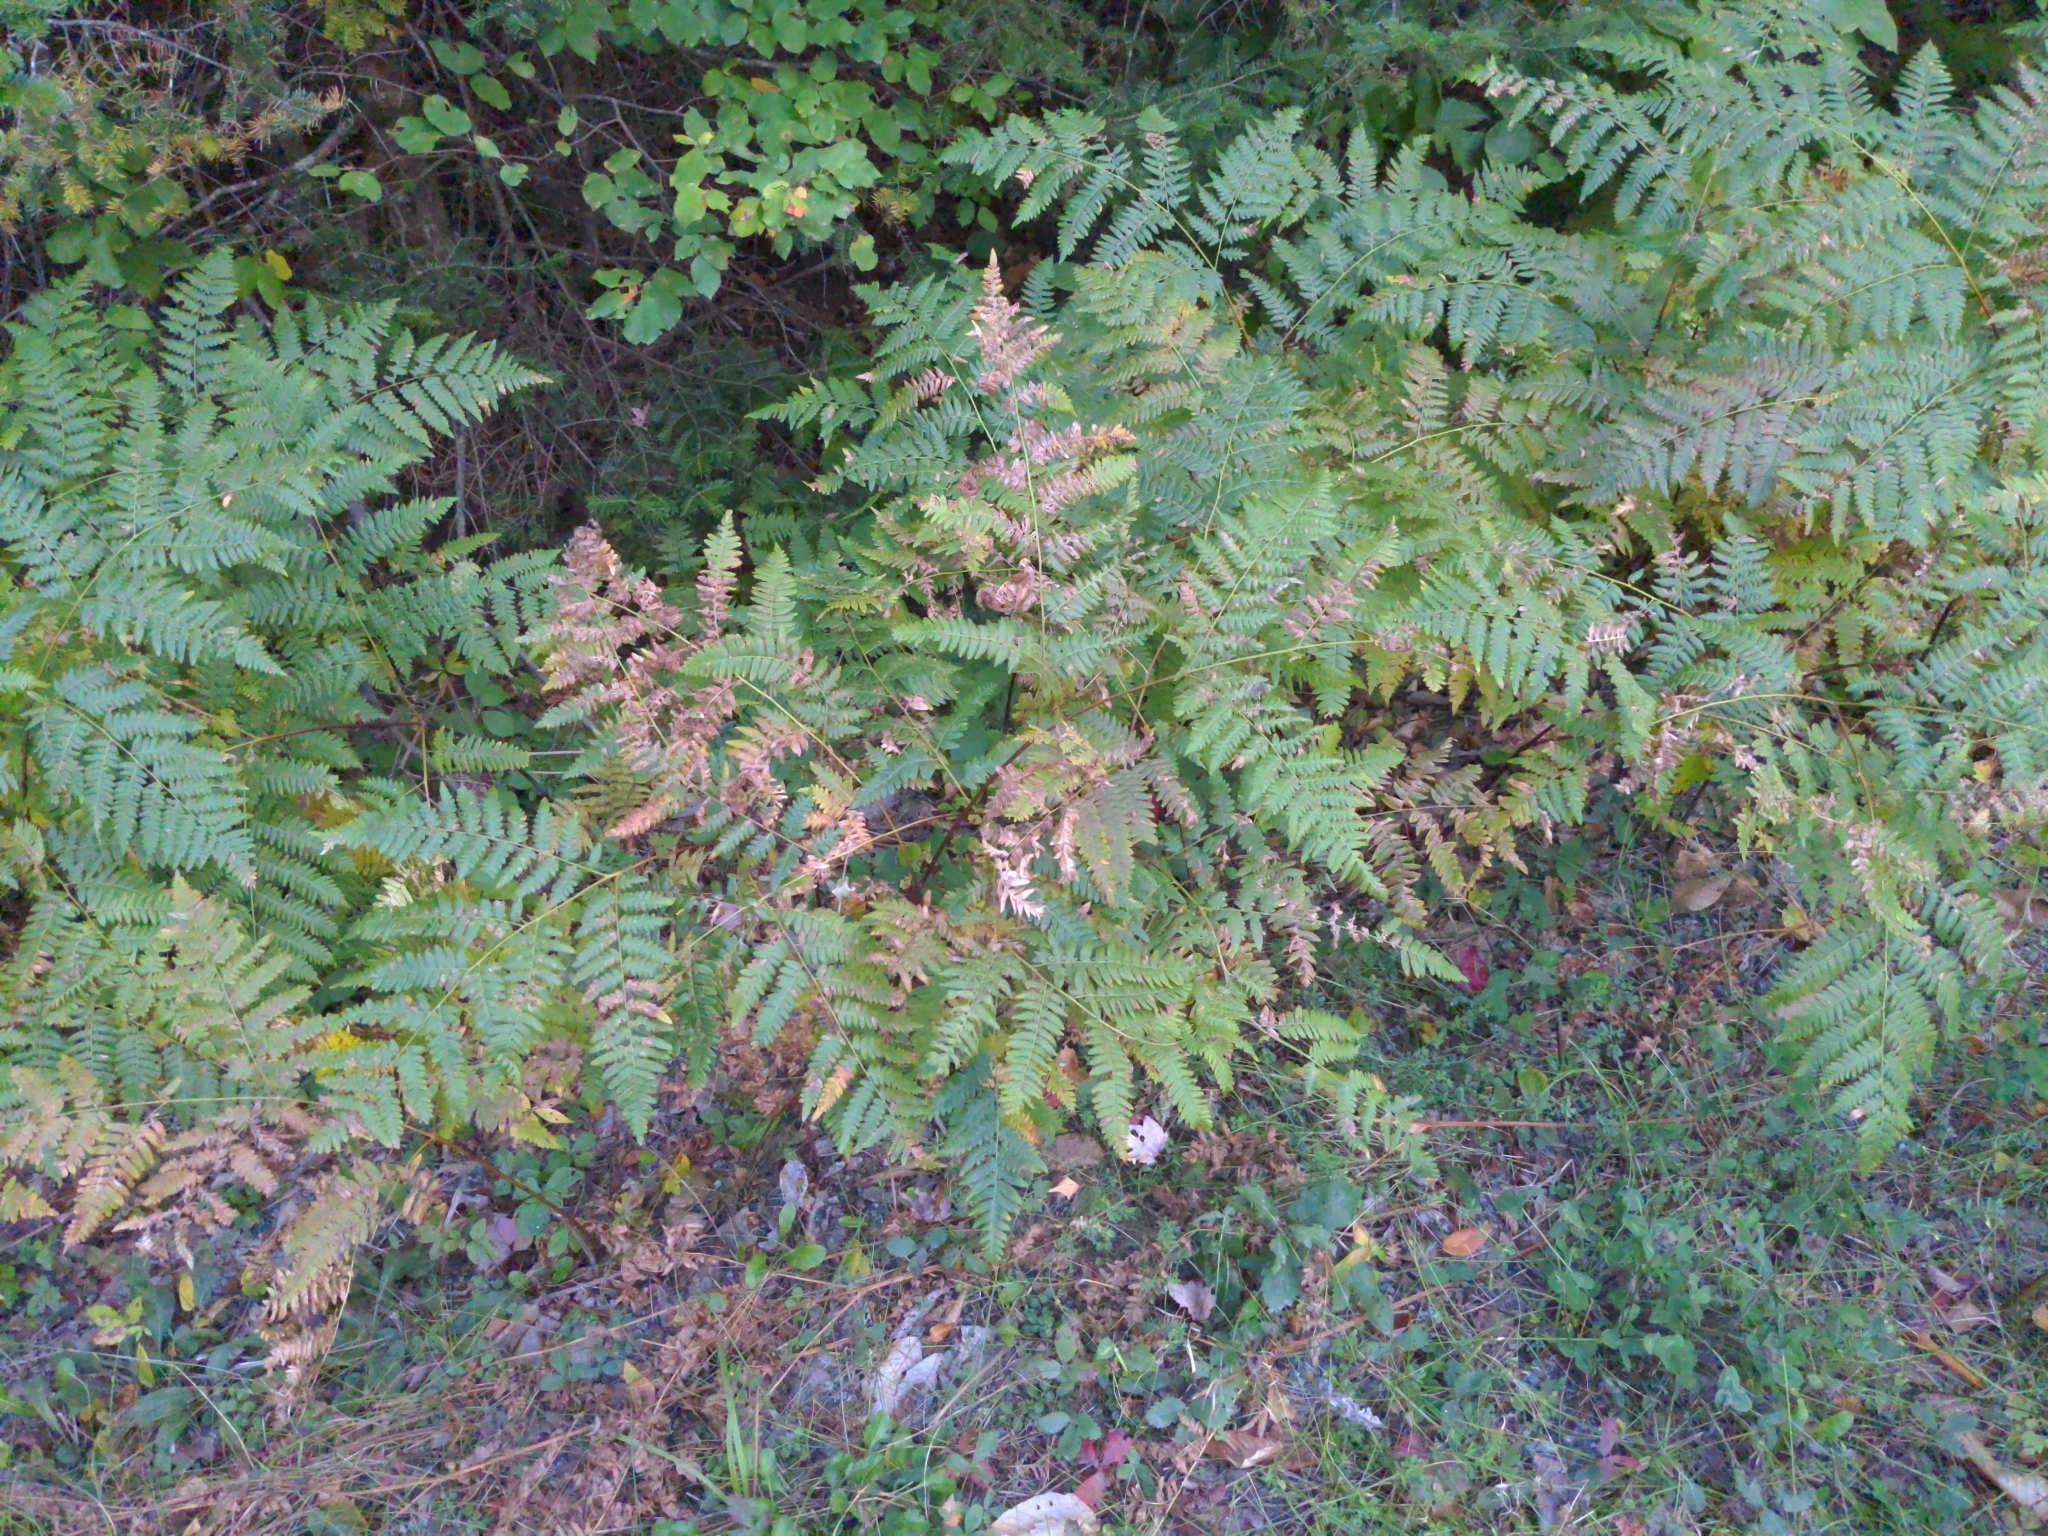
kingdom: Plantae
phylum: Tracheophyta
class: Polypodiopsida
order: Polypodiales
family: Dennstaedtiaceae
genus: Pteridium
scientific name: Pteridium aquilinum
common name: Bracken
